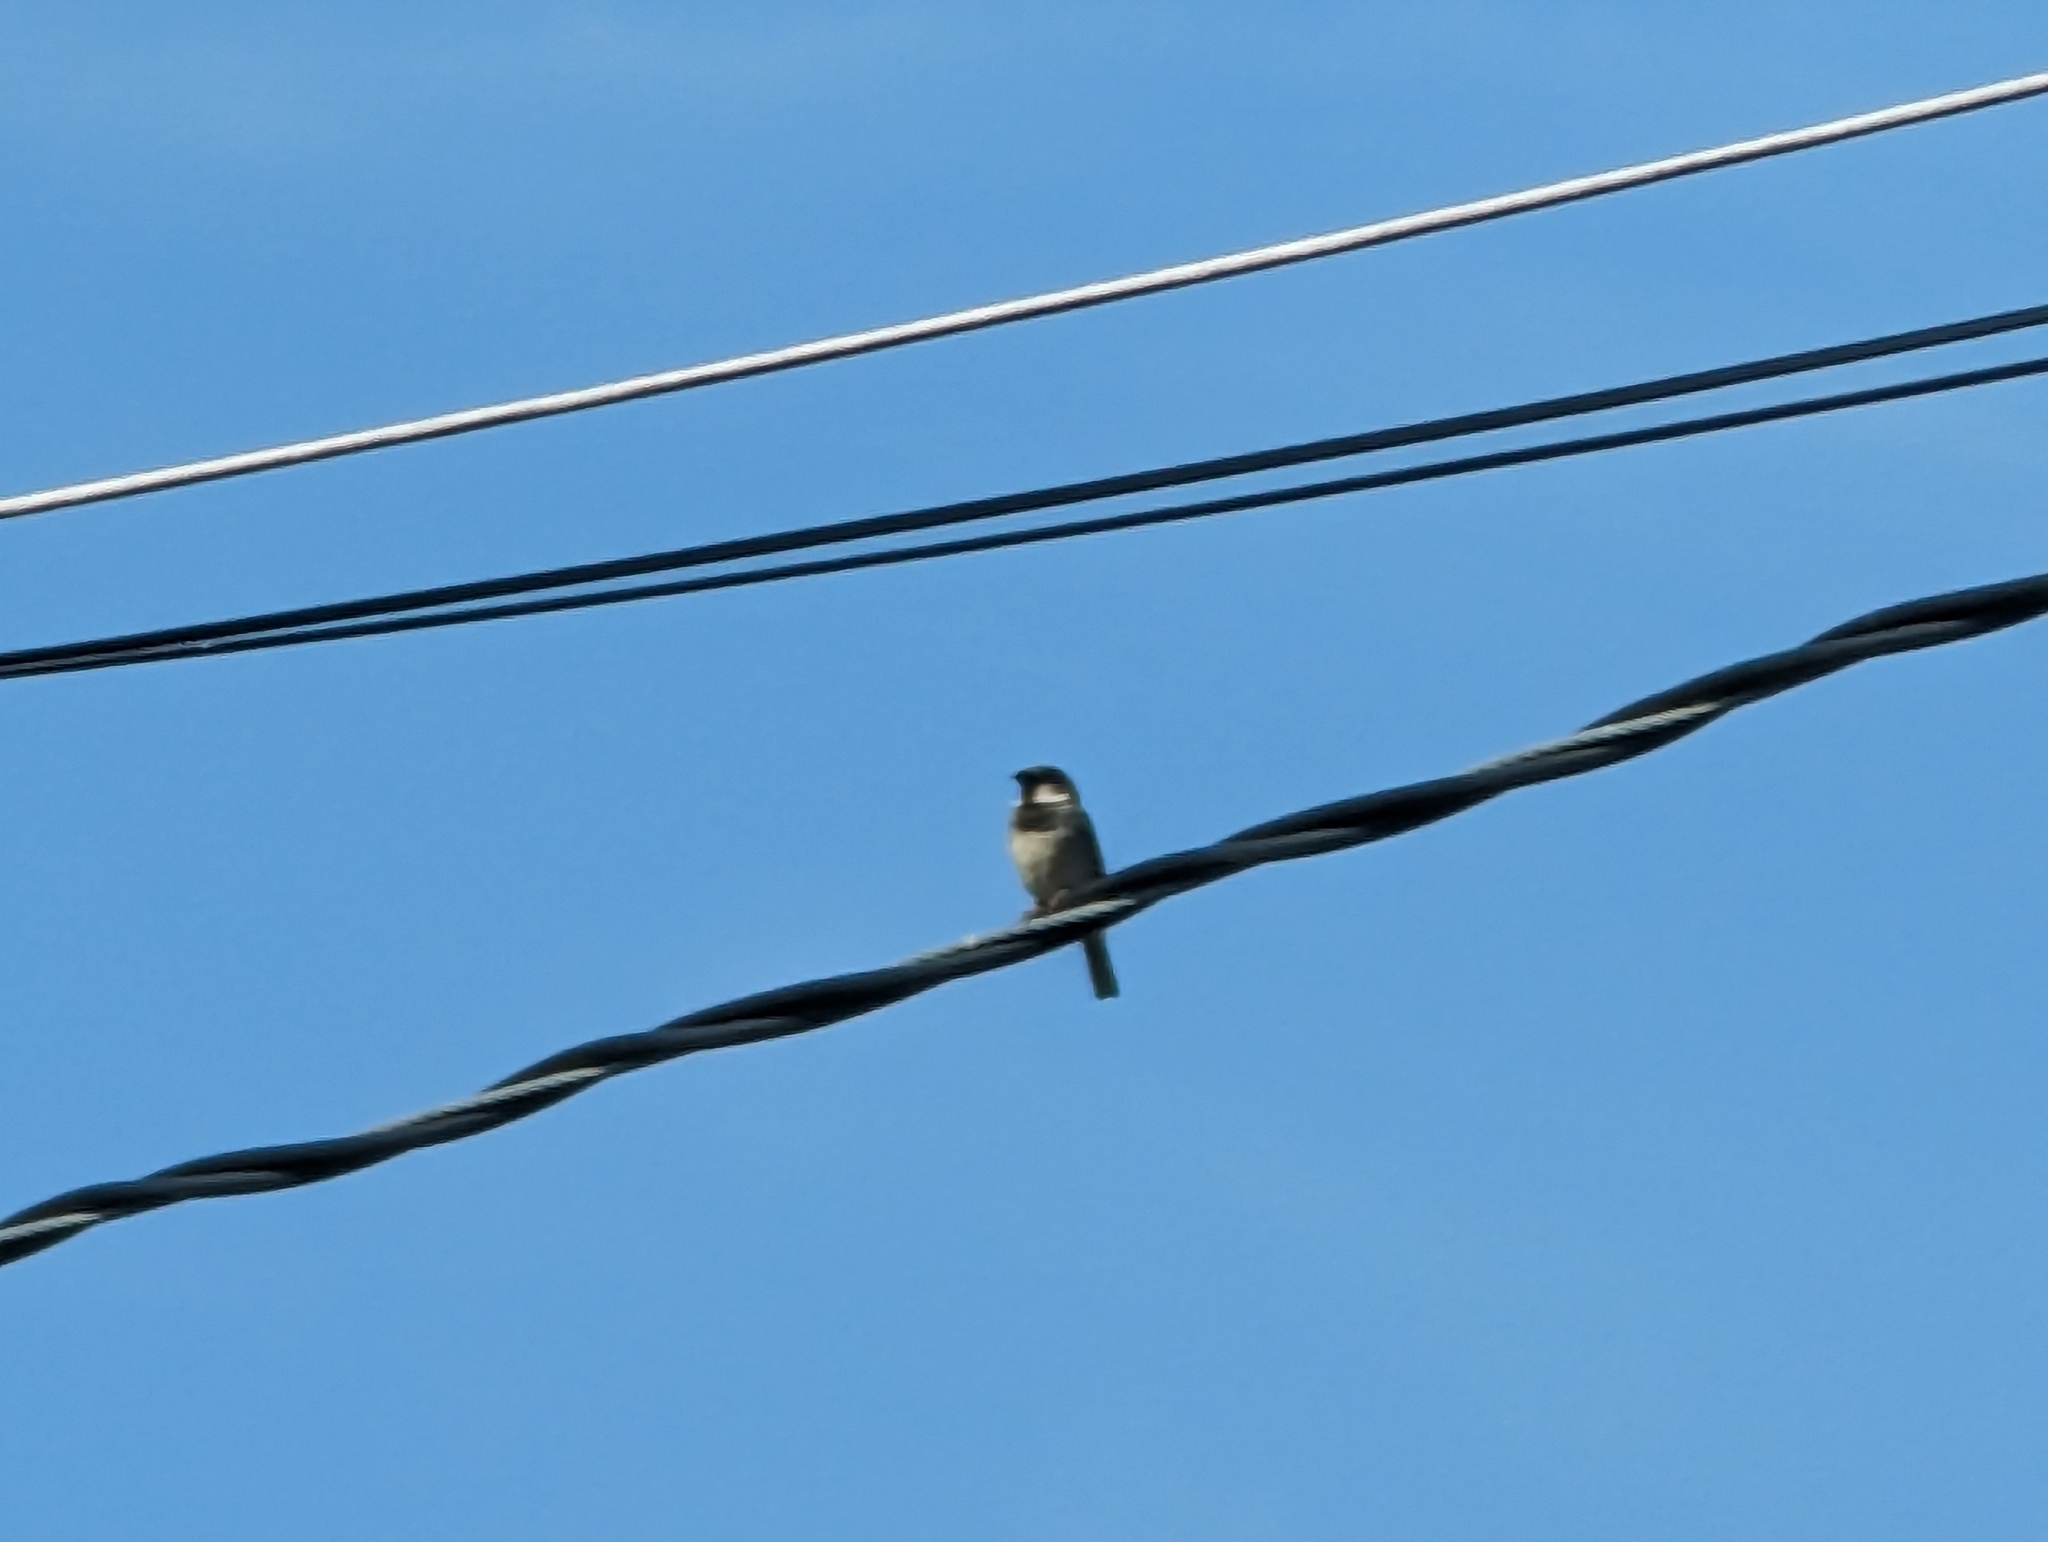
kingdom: Animalia
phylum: Chordata
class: Aves
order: Passeriformes
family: Passeridae
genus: Passer
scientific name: Passer domesticus
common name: House sparrow
